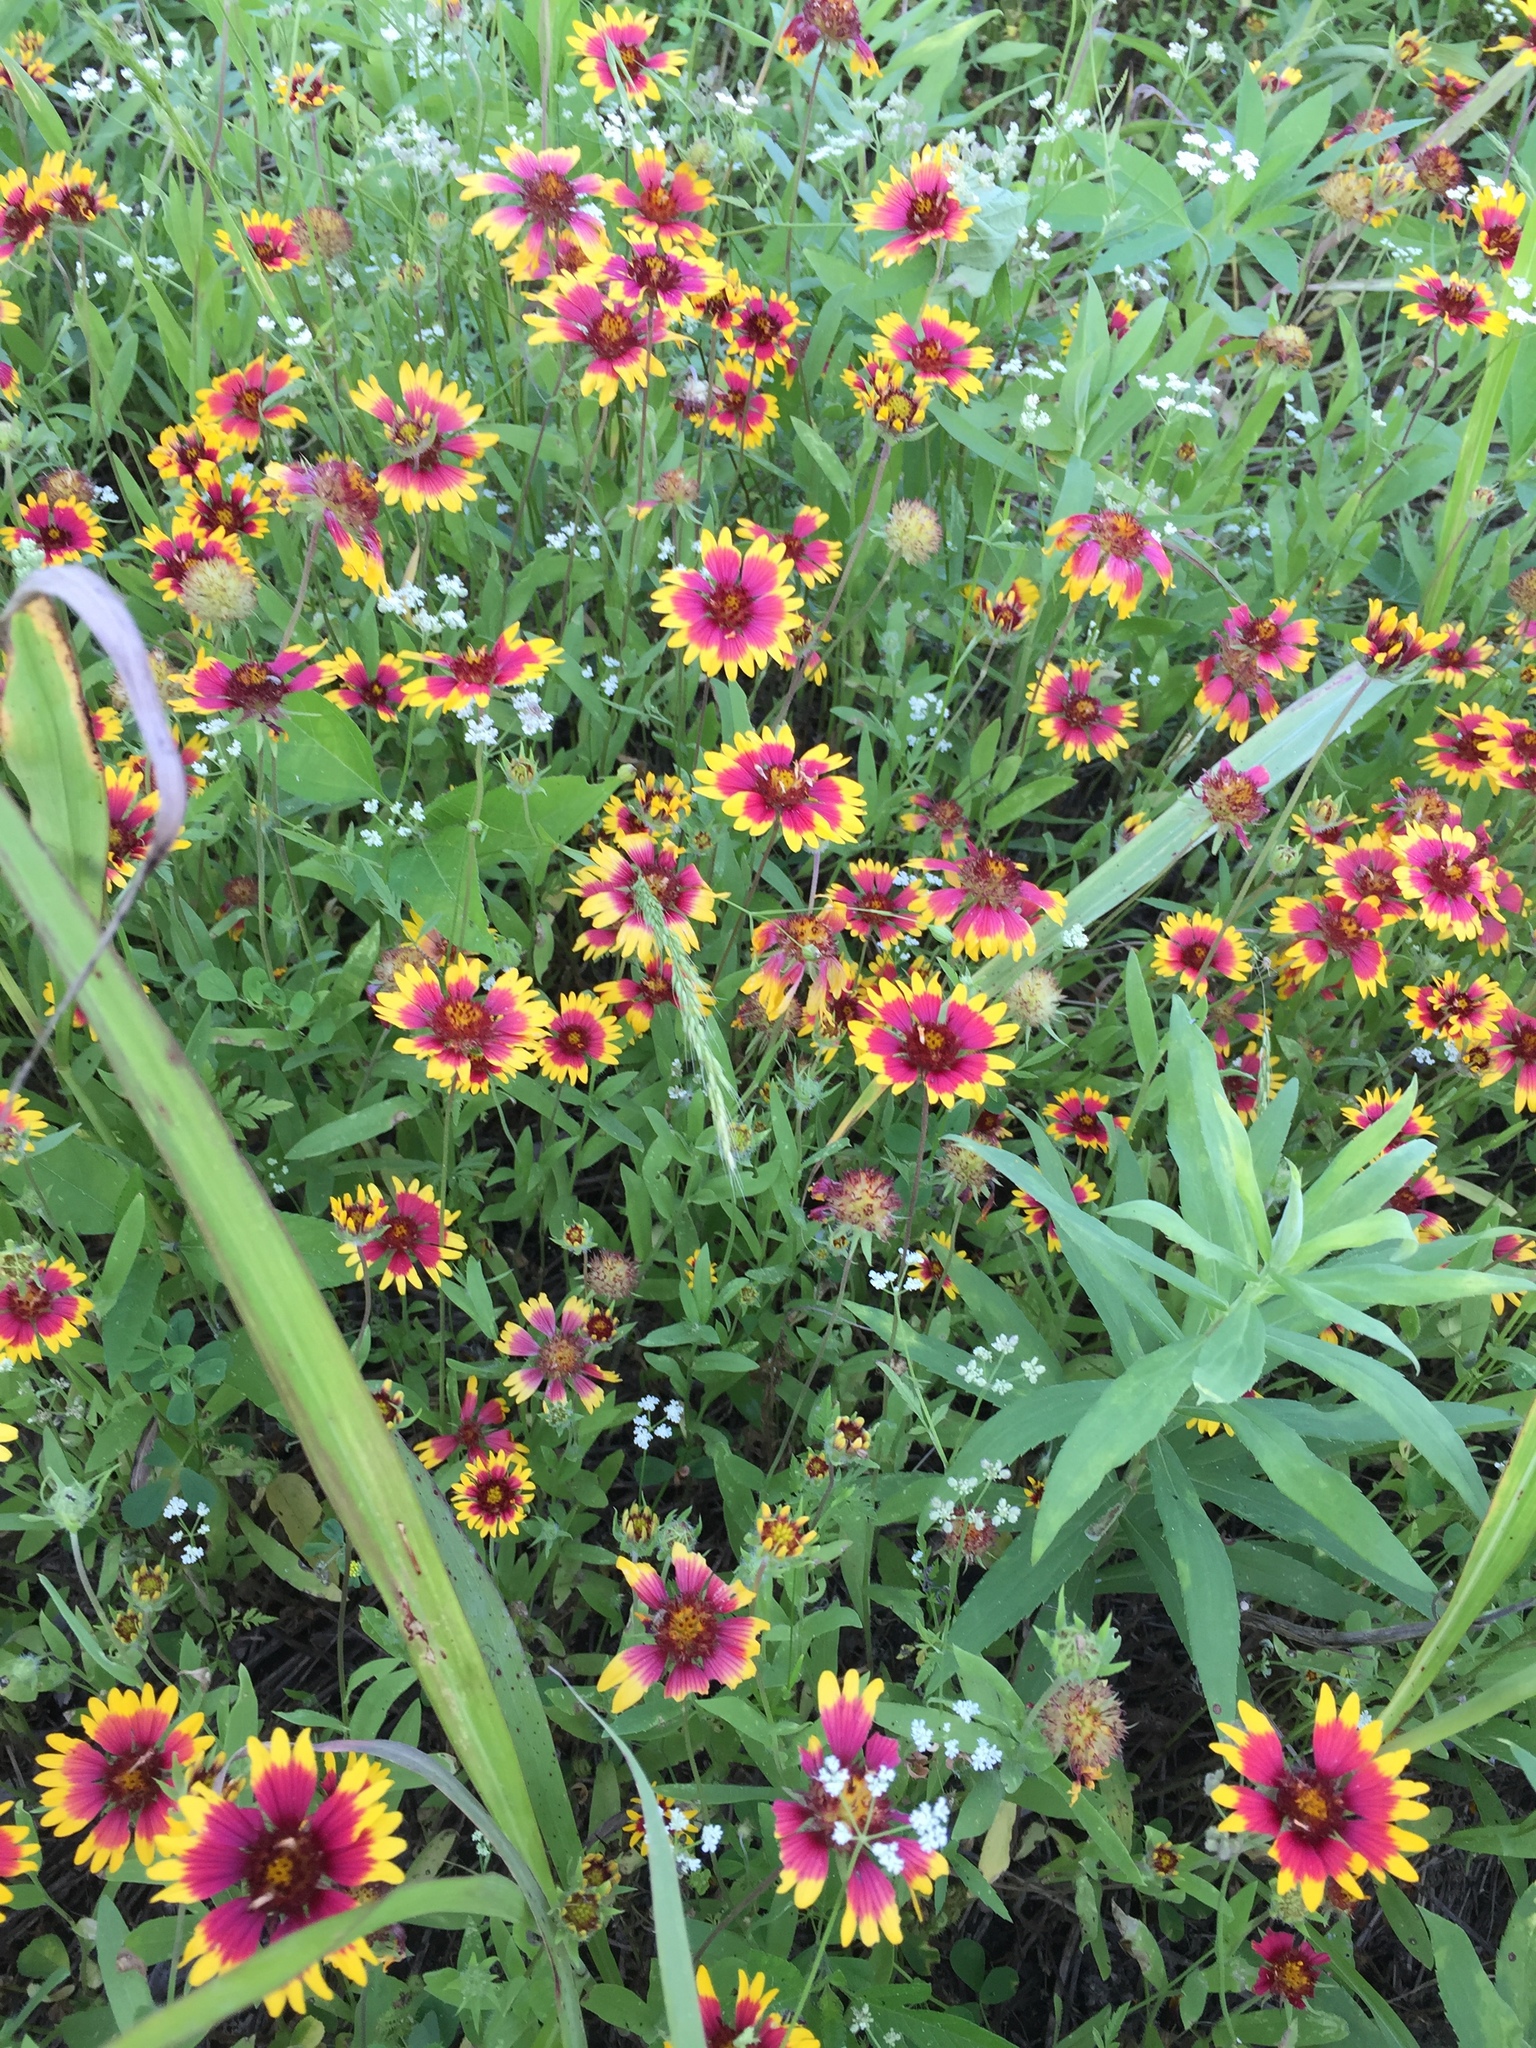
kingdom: Plantae
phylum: Tracheophyta
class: Magnoliopsida
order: Asterales
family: Asteraceae
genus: Gaillardia
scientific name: Gaillardia pulchella
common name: Firewheel
